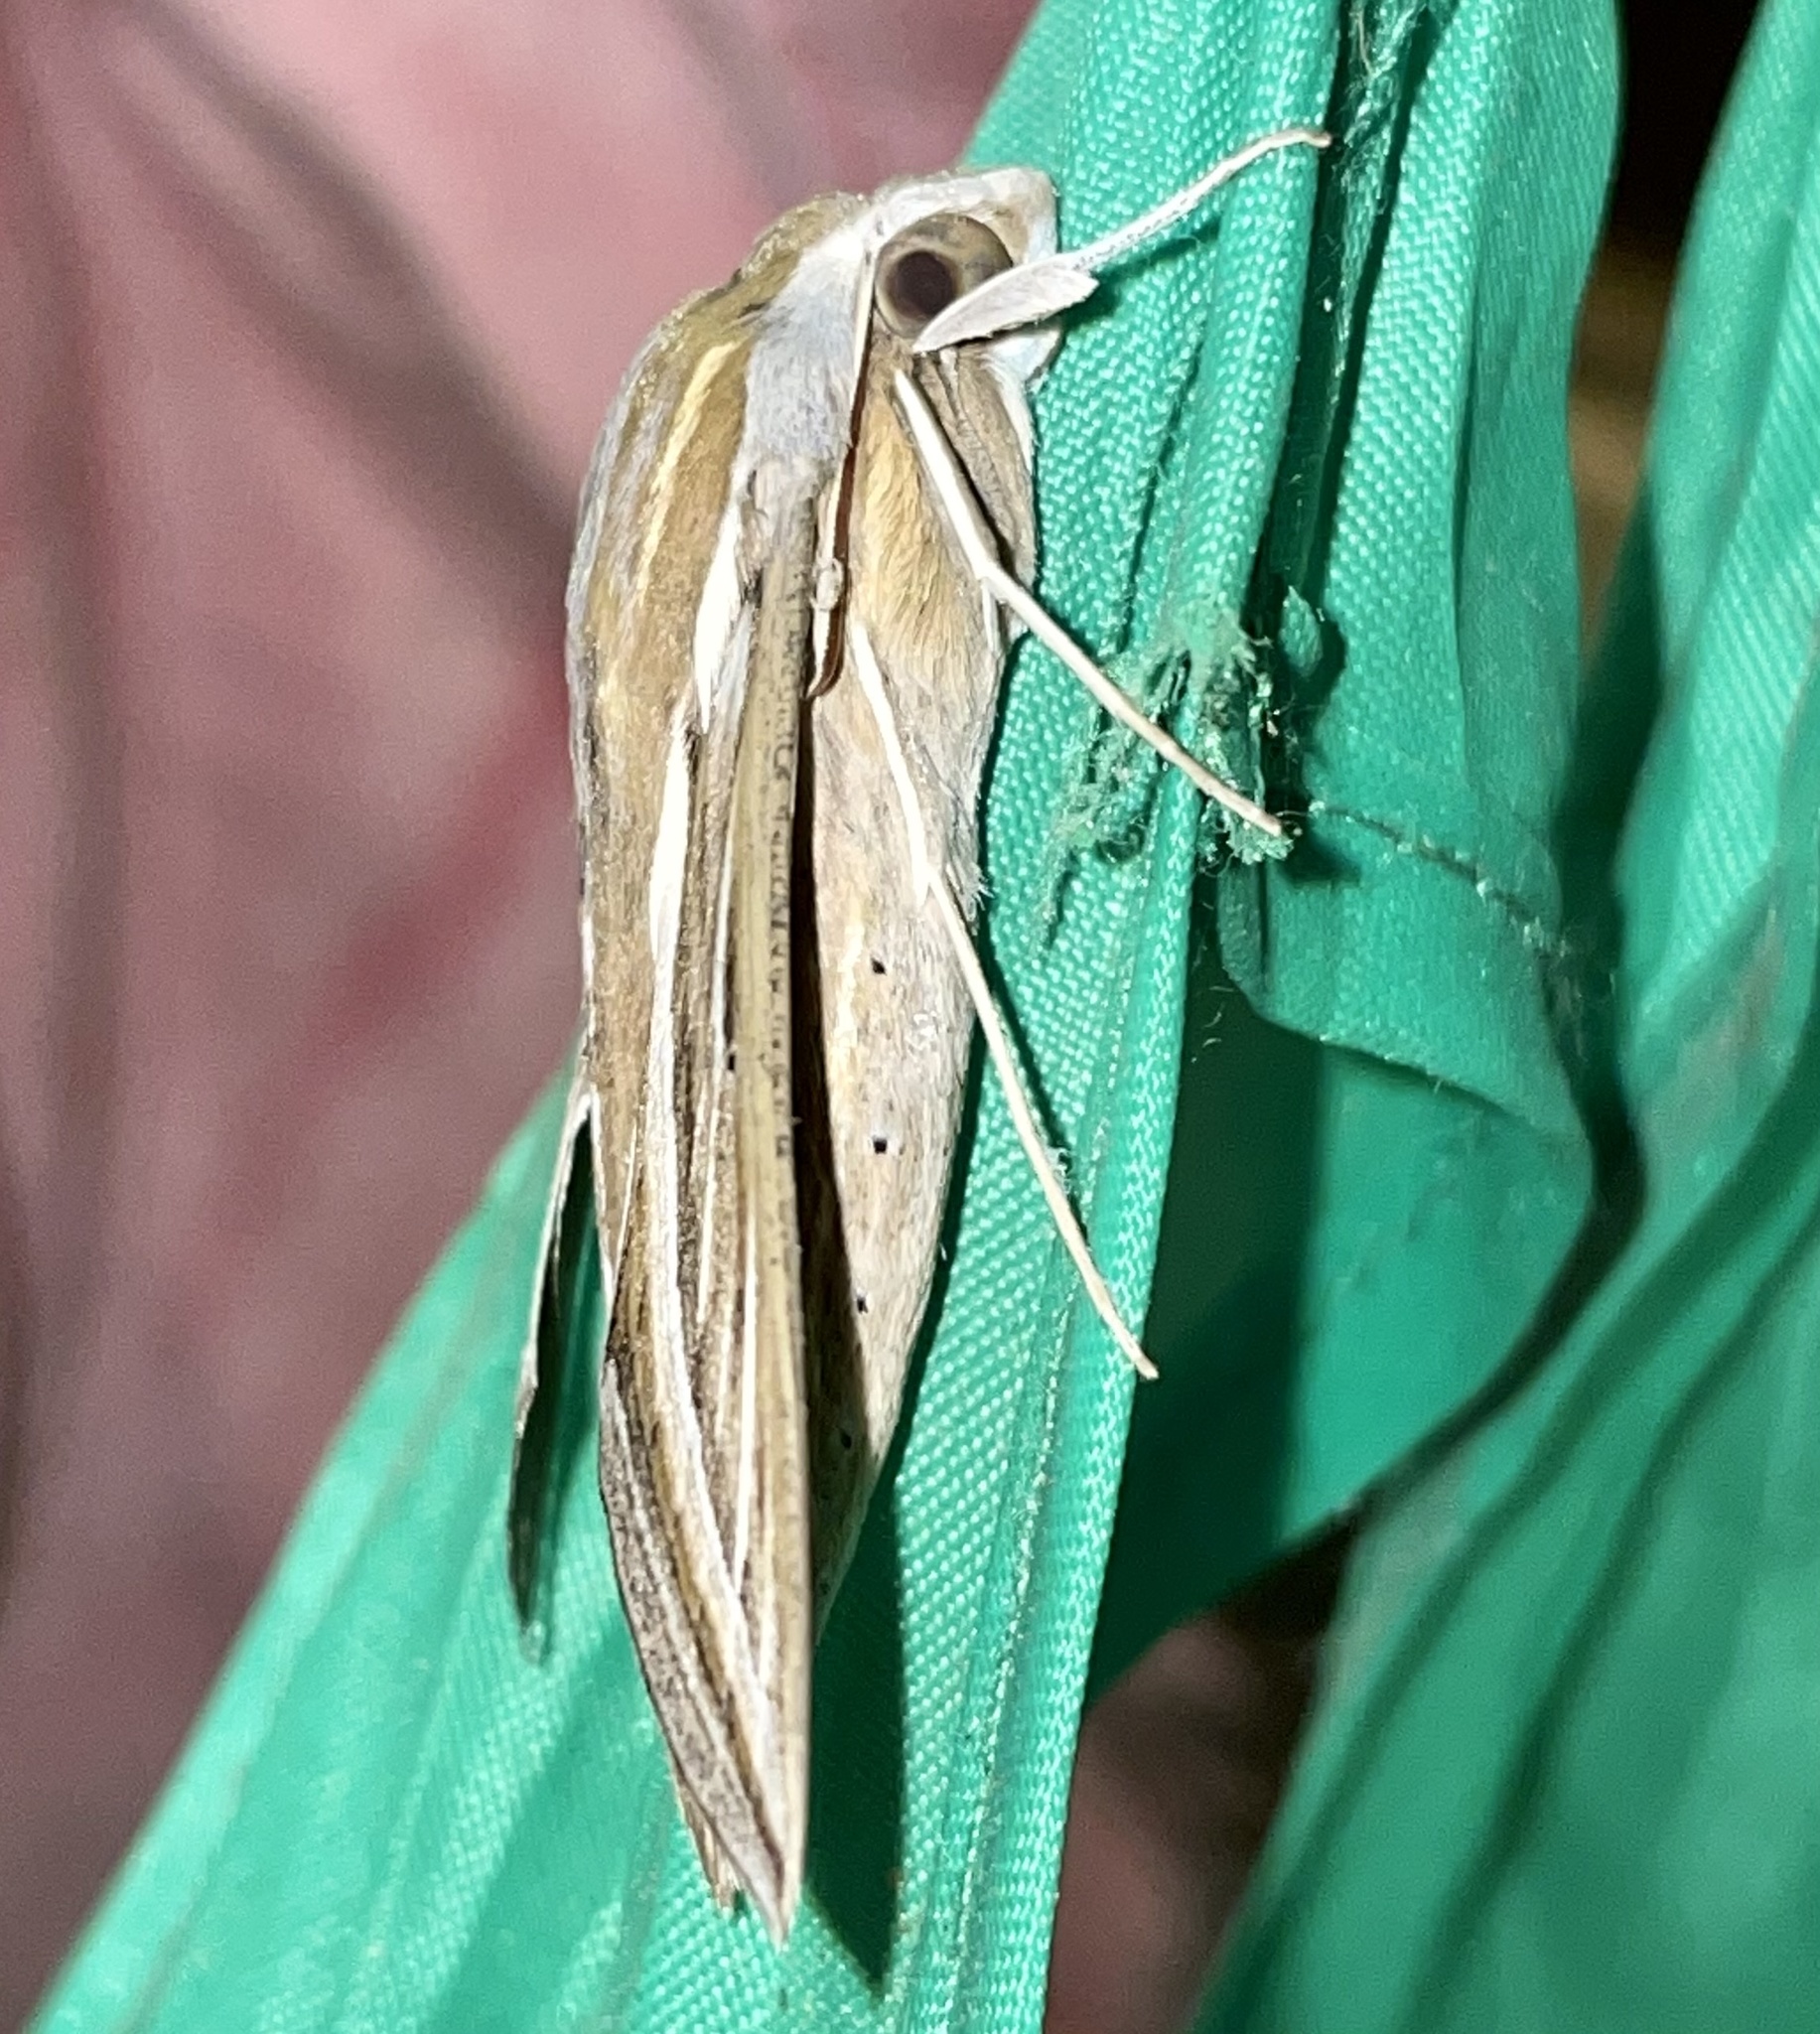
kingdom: Animalia
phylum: Arthropoda
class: Insecta
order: Lepidoptera
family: Sphingidae
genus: Hippotion
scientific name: Hippotion celerio
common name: Silver-striped hawk-moth
